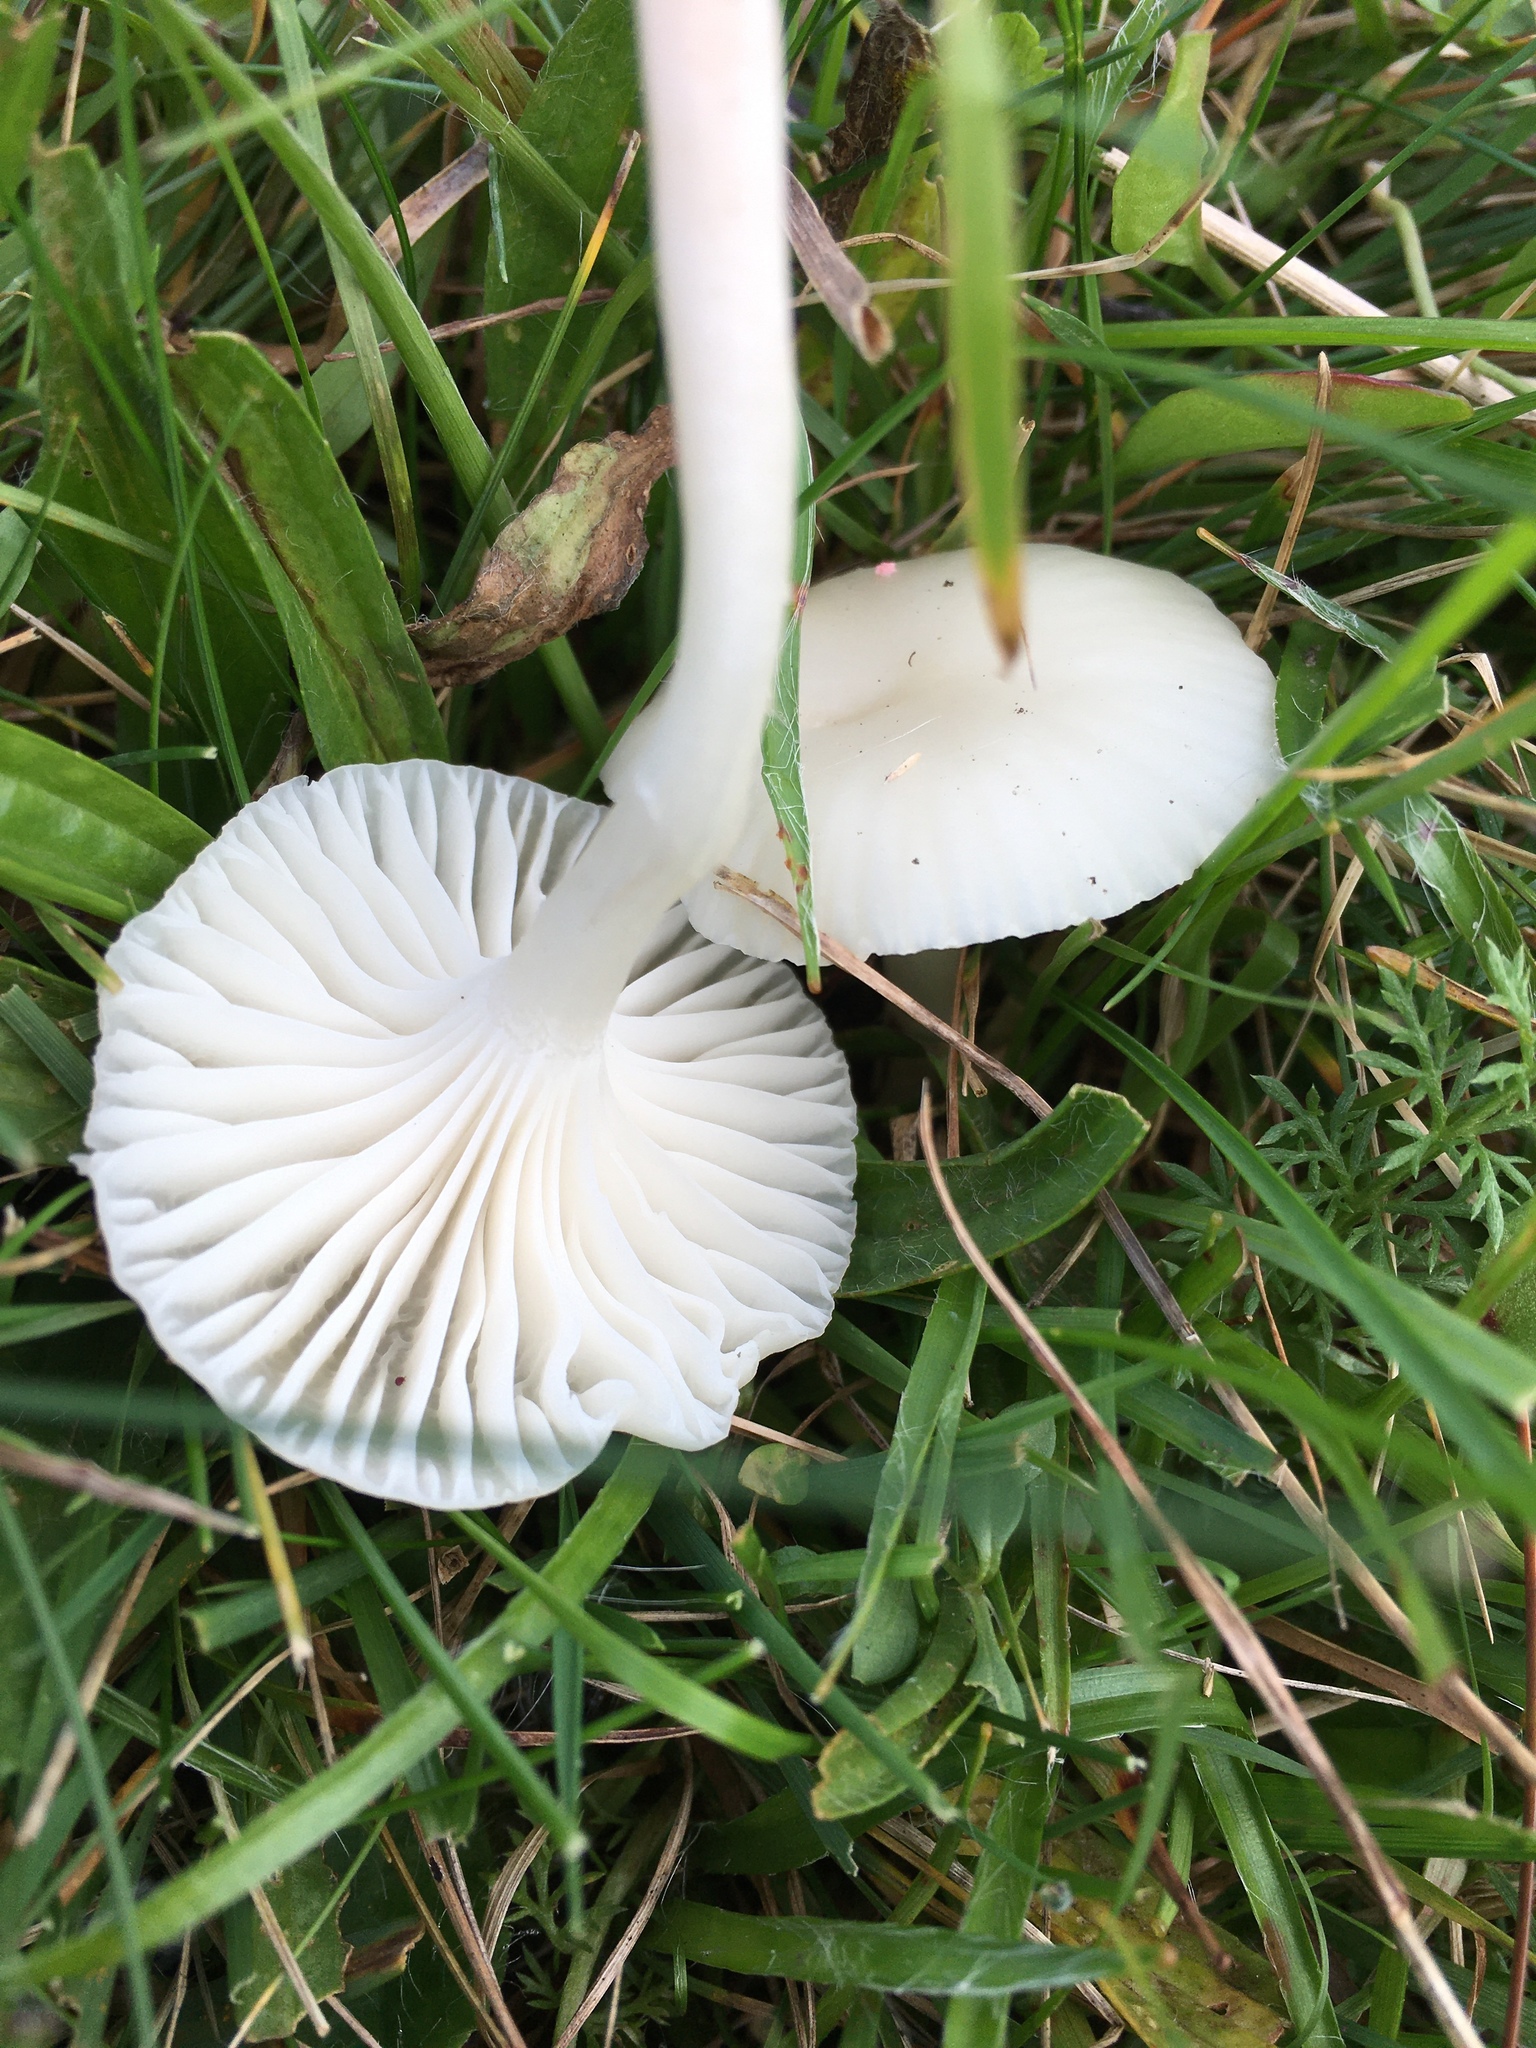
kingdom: Fungi
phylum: Basidiomycota
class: Agaricomycetes
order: Agaricales
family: Hygrophoraceae
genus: Cuphophyllus
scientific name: Cuphophyllus virgineus
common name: Snowy waxcap
